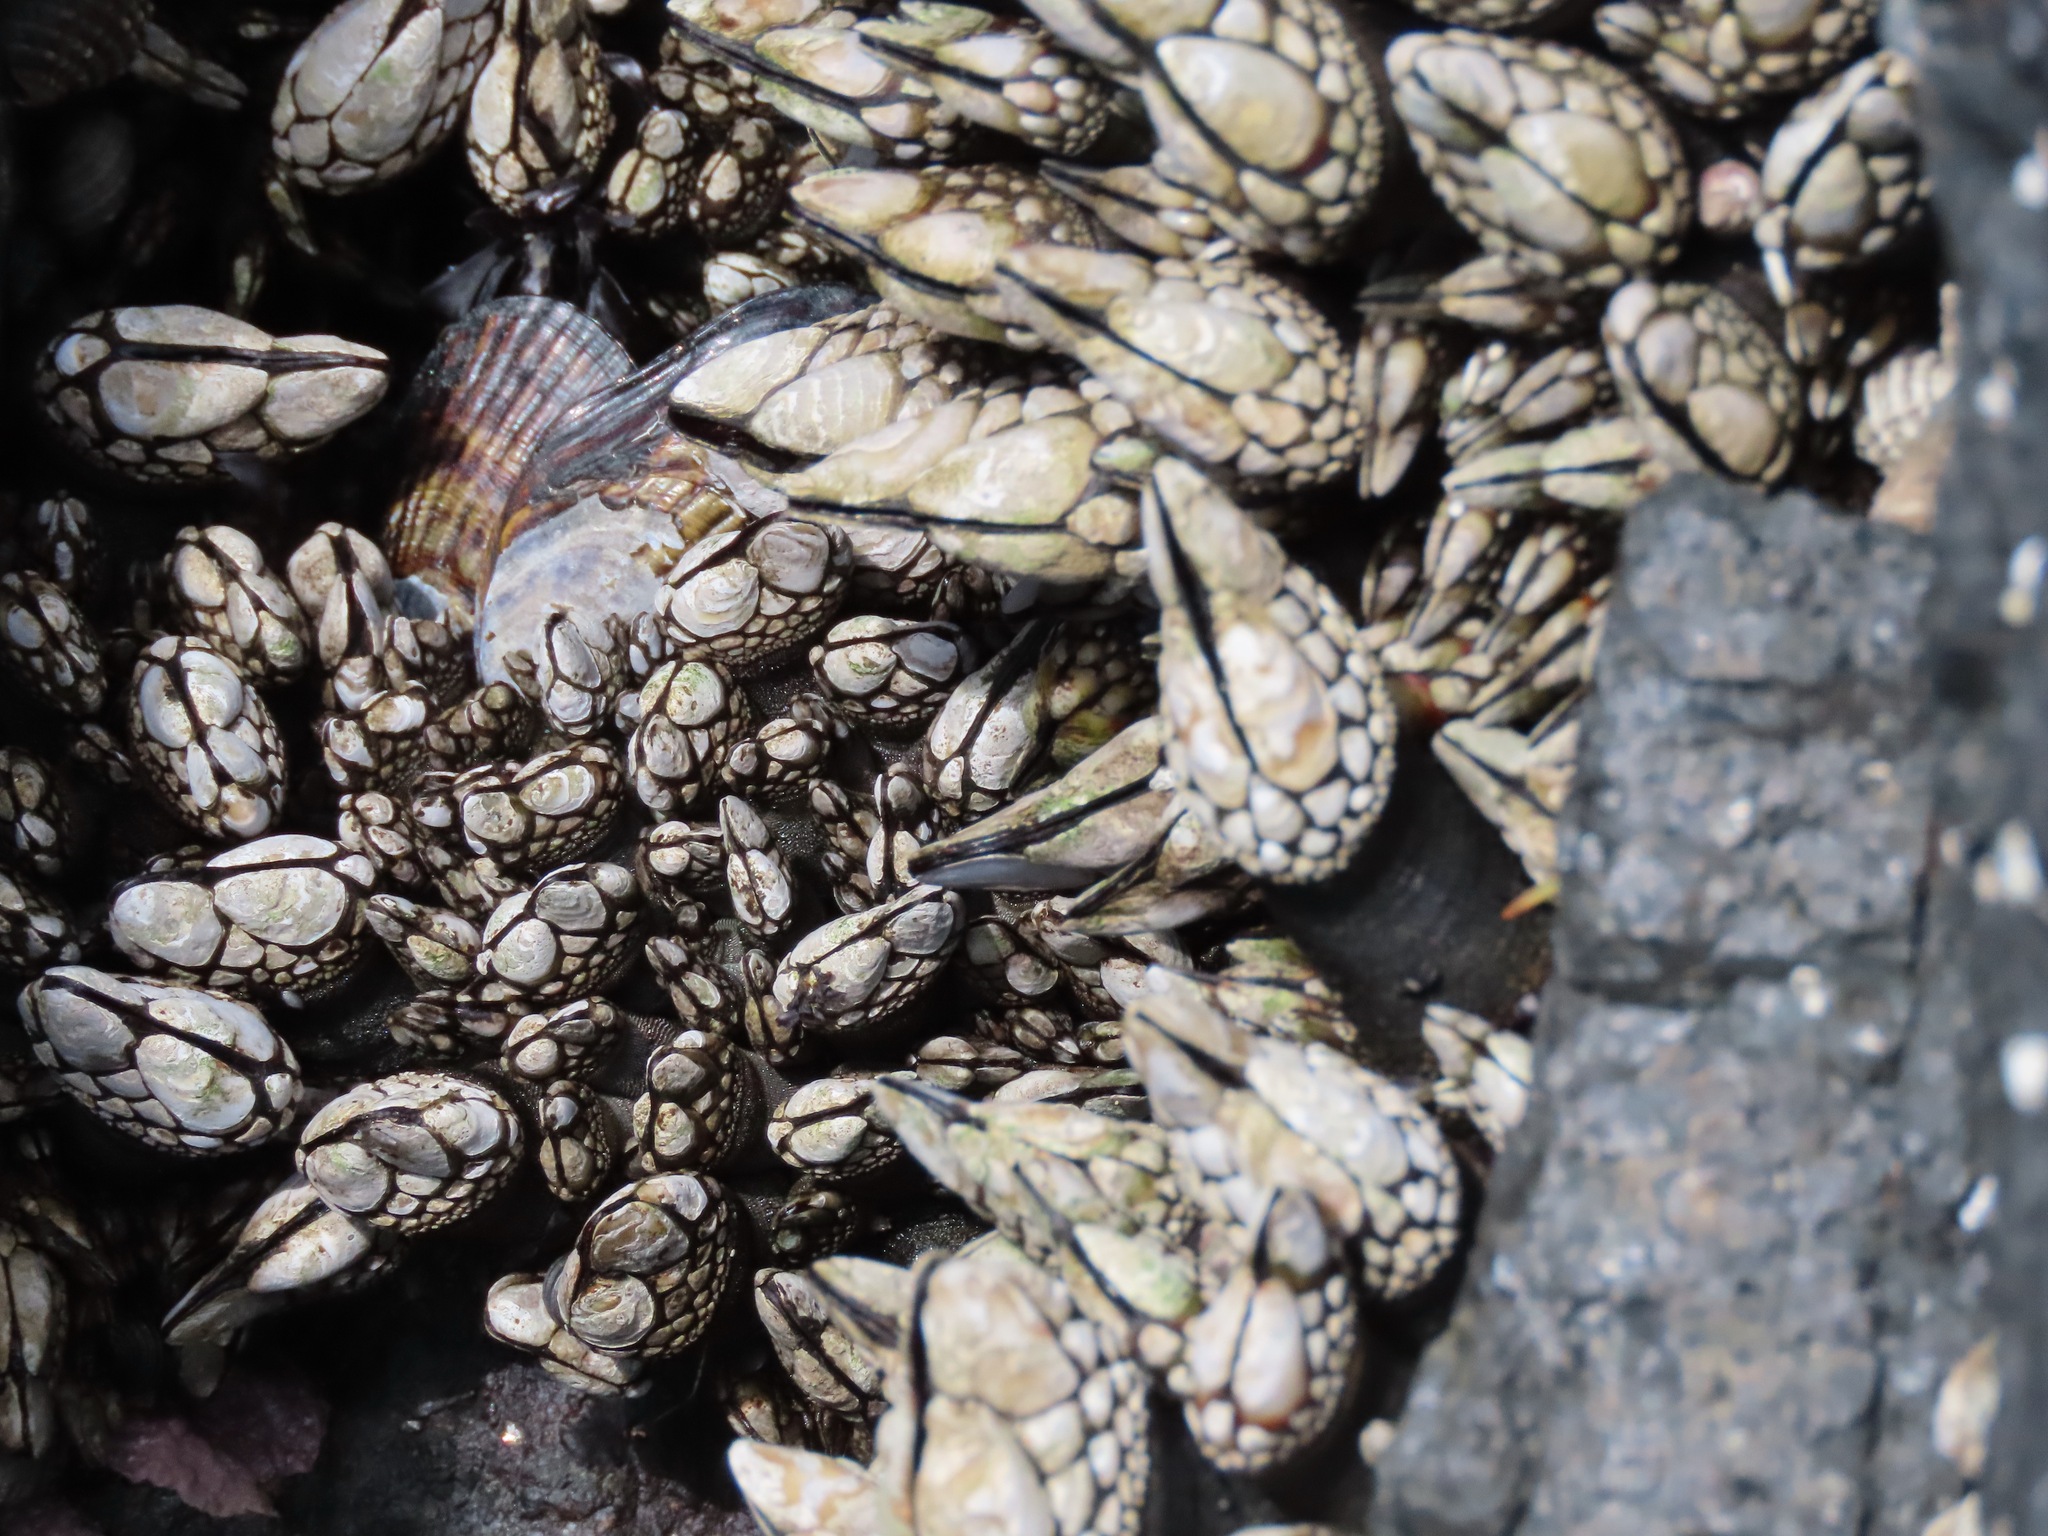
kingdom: Animalia
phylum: Arthropoda
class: Maxillopoda
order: Pedunculata
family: Pollicipedidae
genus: Pollicipes
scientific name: Pollicipes polymerus
